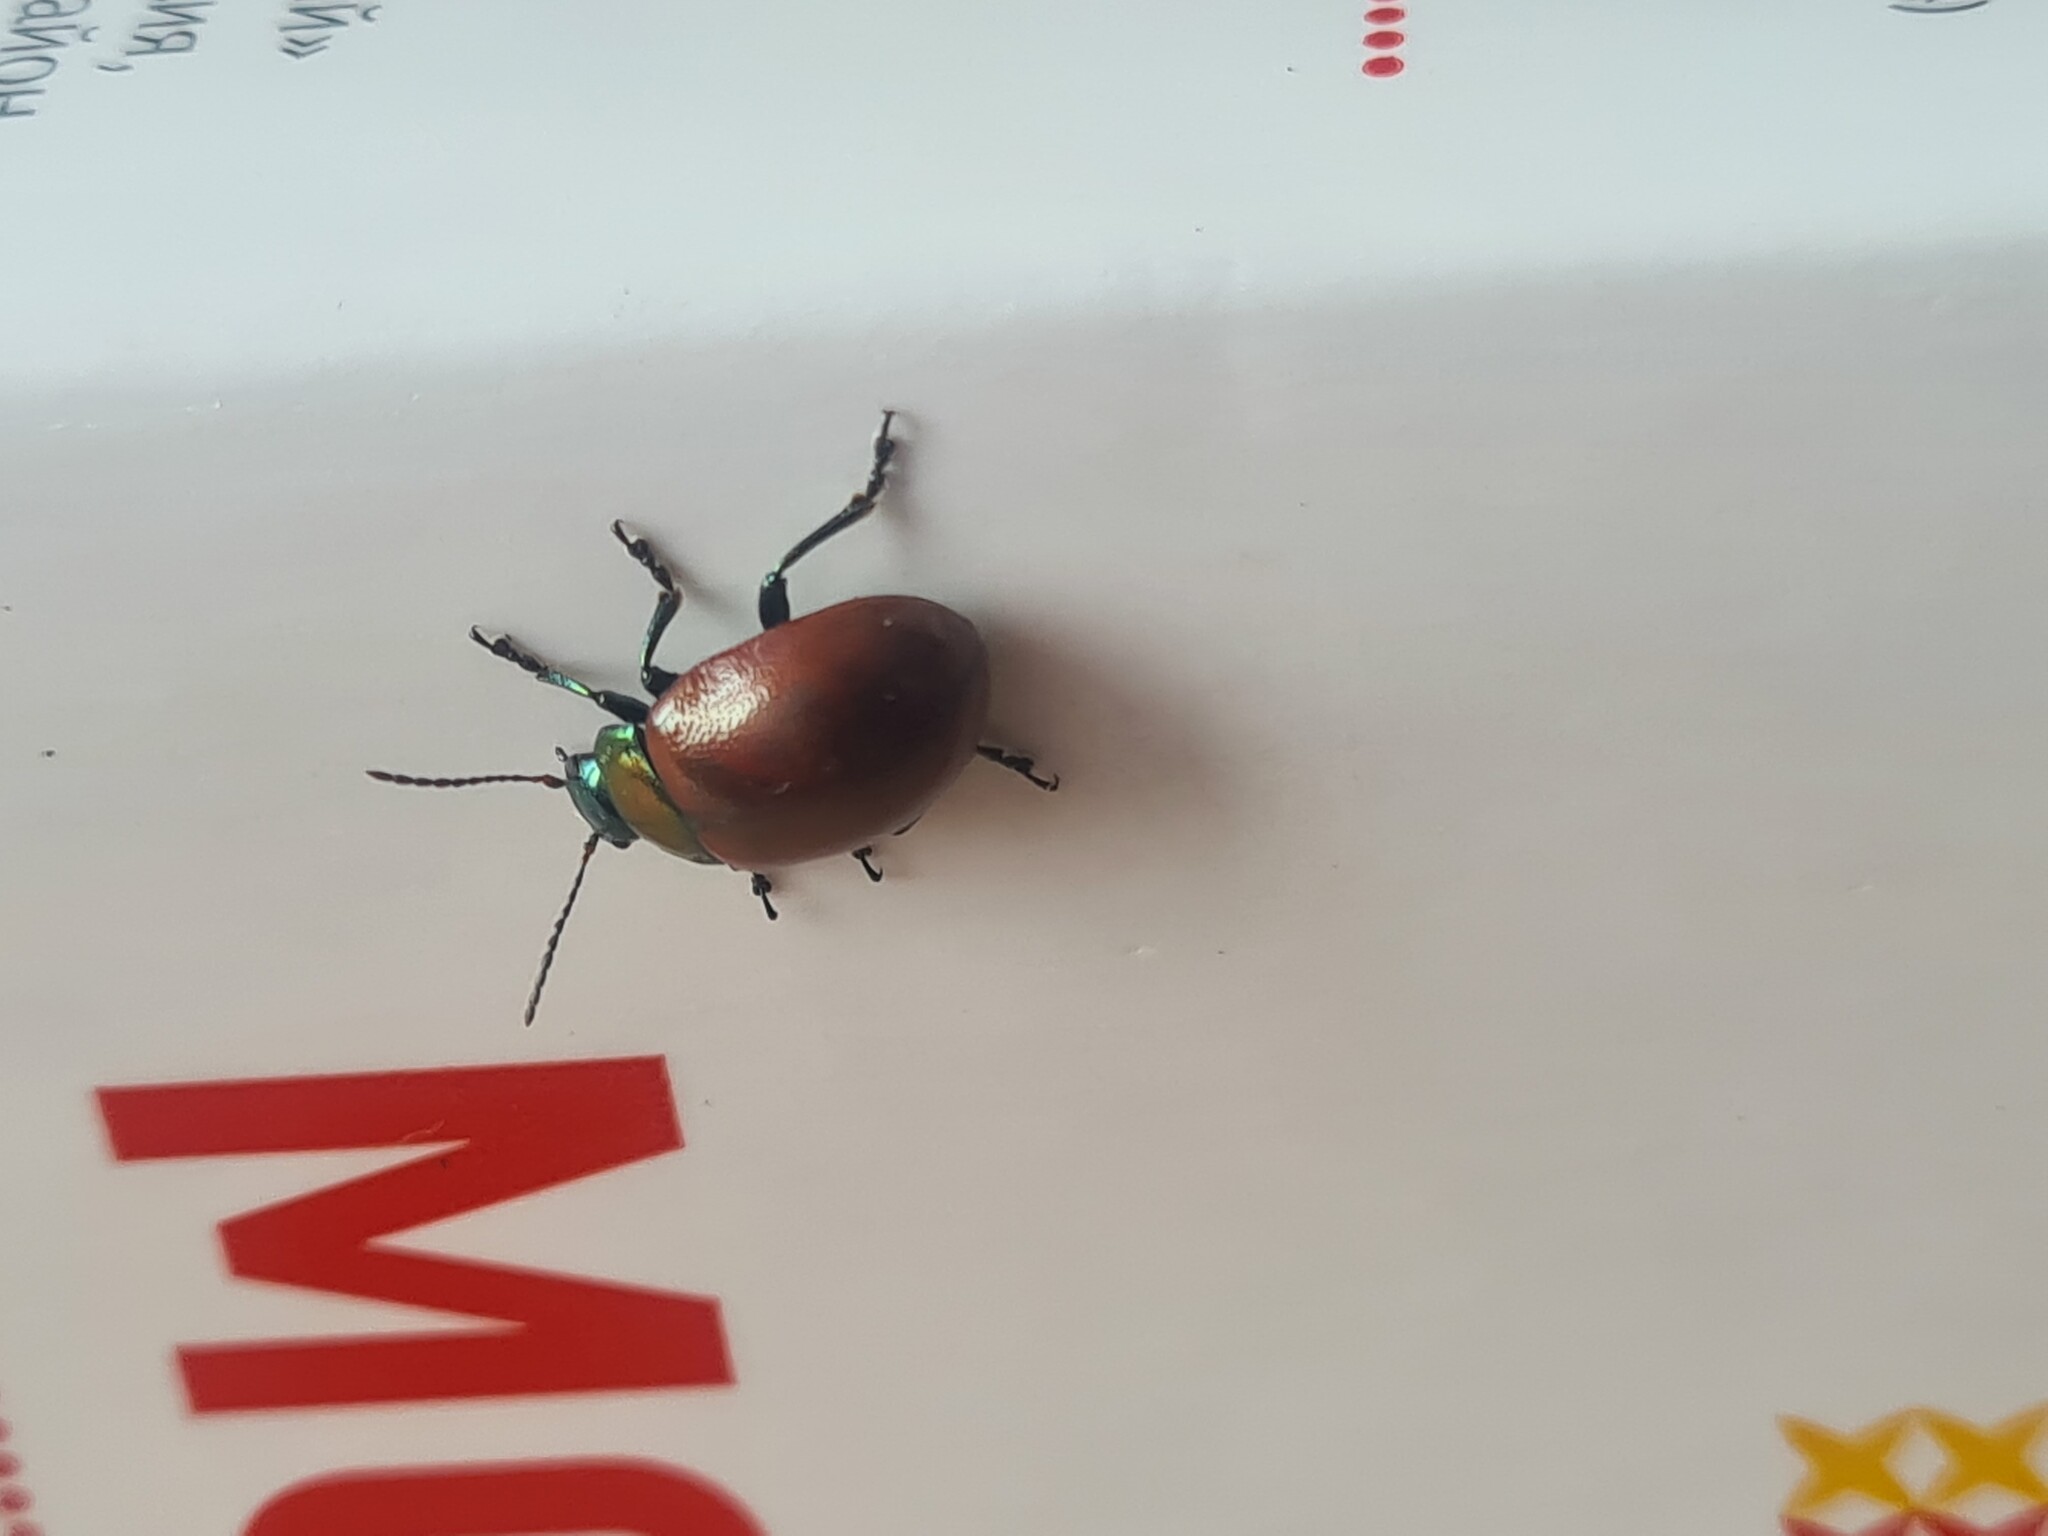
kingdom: Animalia
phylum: Arthropoda
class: Insecta
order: Coleoptera
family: Chrysomelidae
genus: Chrysomela
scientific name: Chrysomela polita
